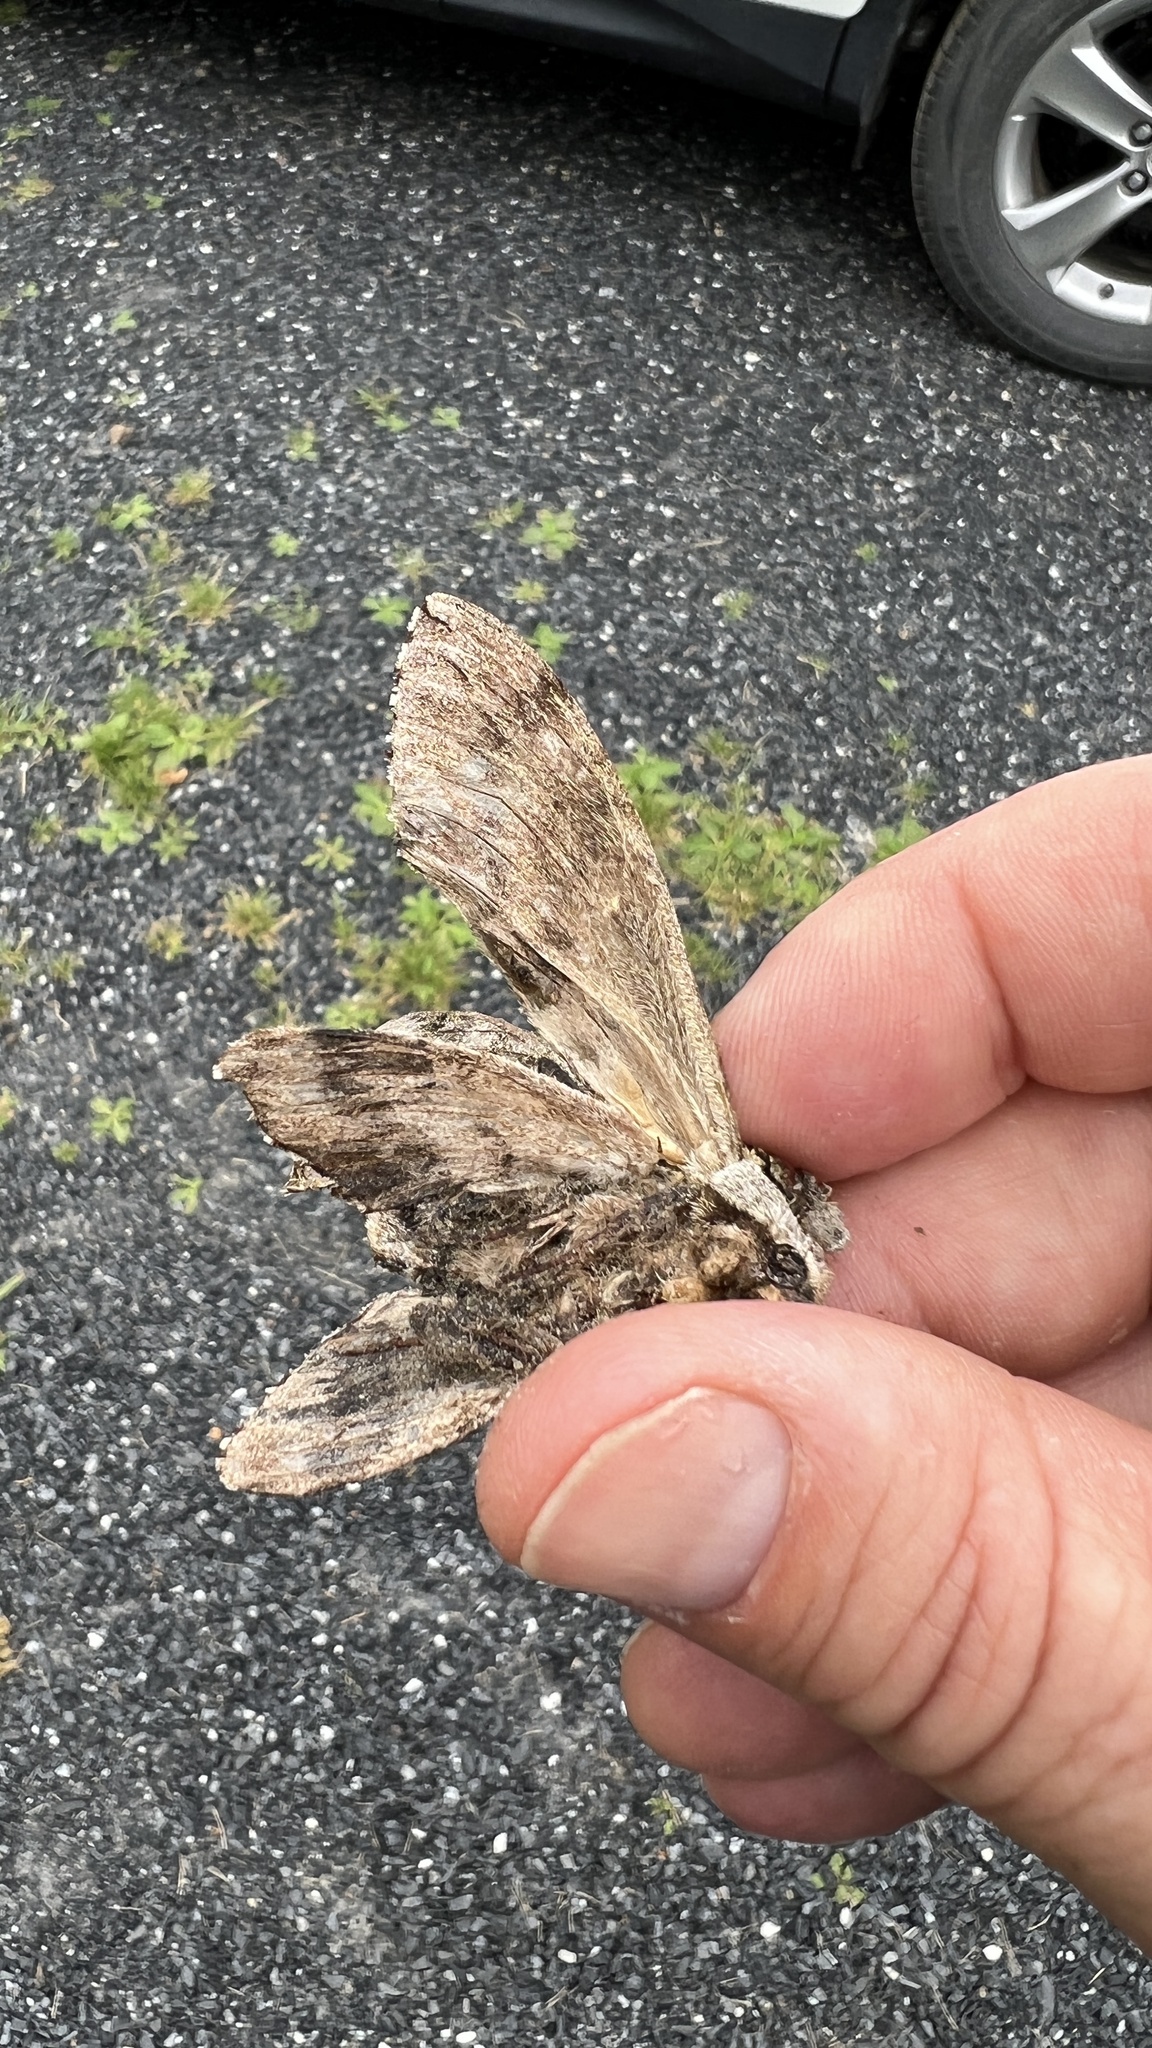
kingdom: Animalia
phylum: Arthropoda
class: Insecta
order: Lepidoptera
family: Sphingidae
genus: Ceratomia
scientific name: Ceratomia undulosa
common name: Waved sphinx
